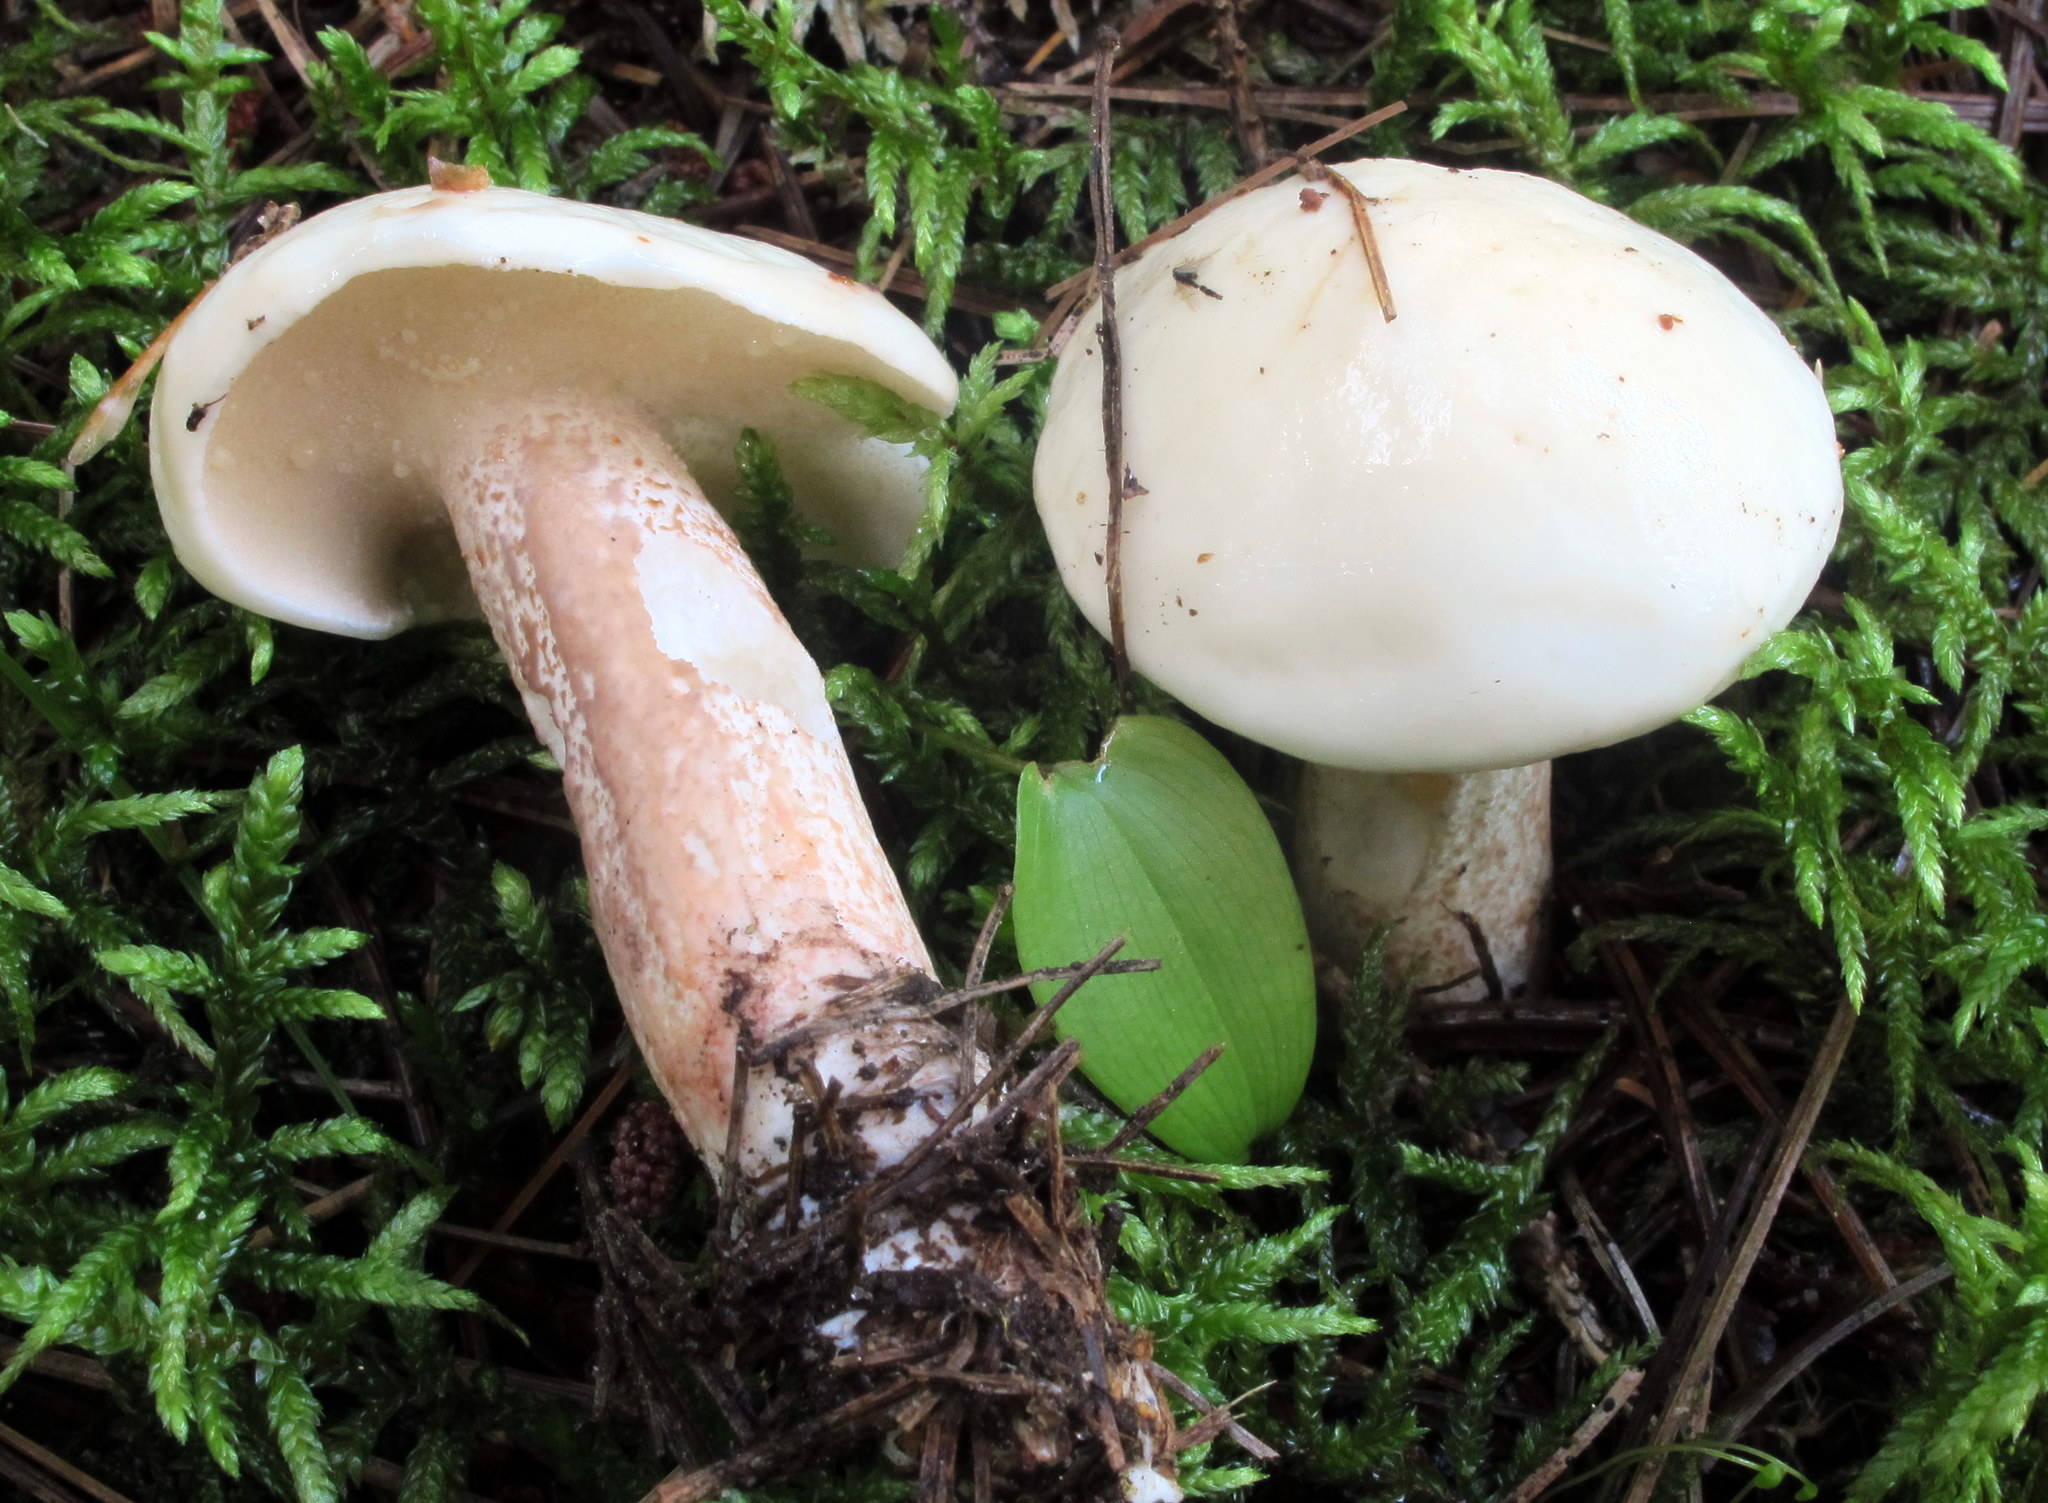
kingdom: Fungi
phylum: Basidiomycota
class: Agaricomycetes
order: Boletales
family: Suillaceae
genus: Suillus
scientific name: Suillus placidus
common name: Slippery white bolete
